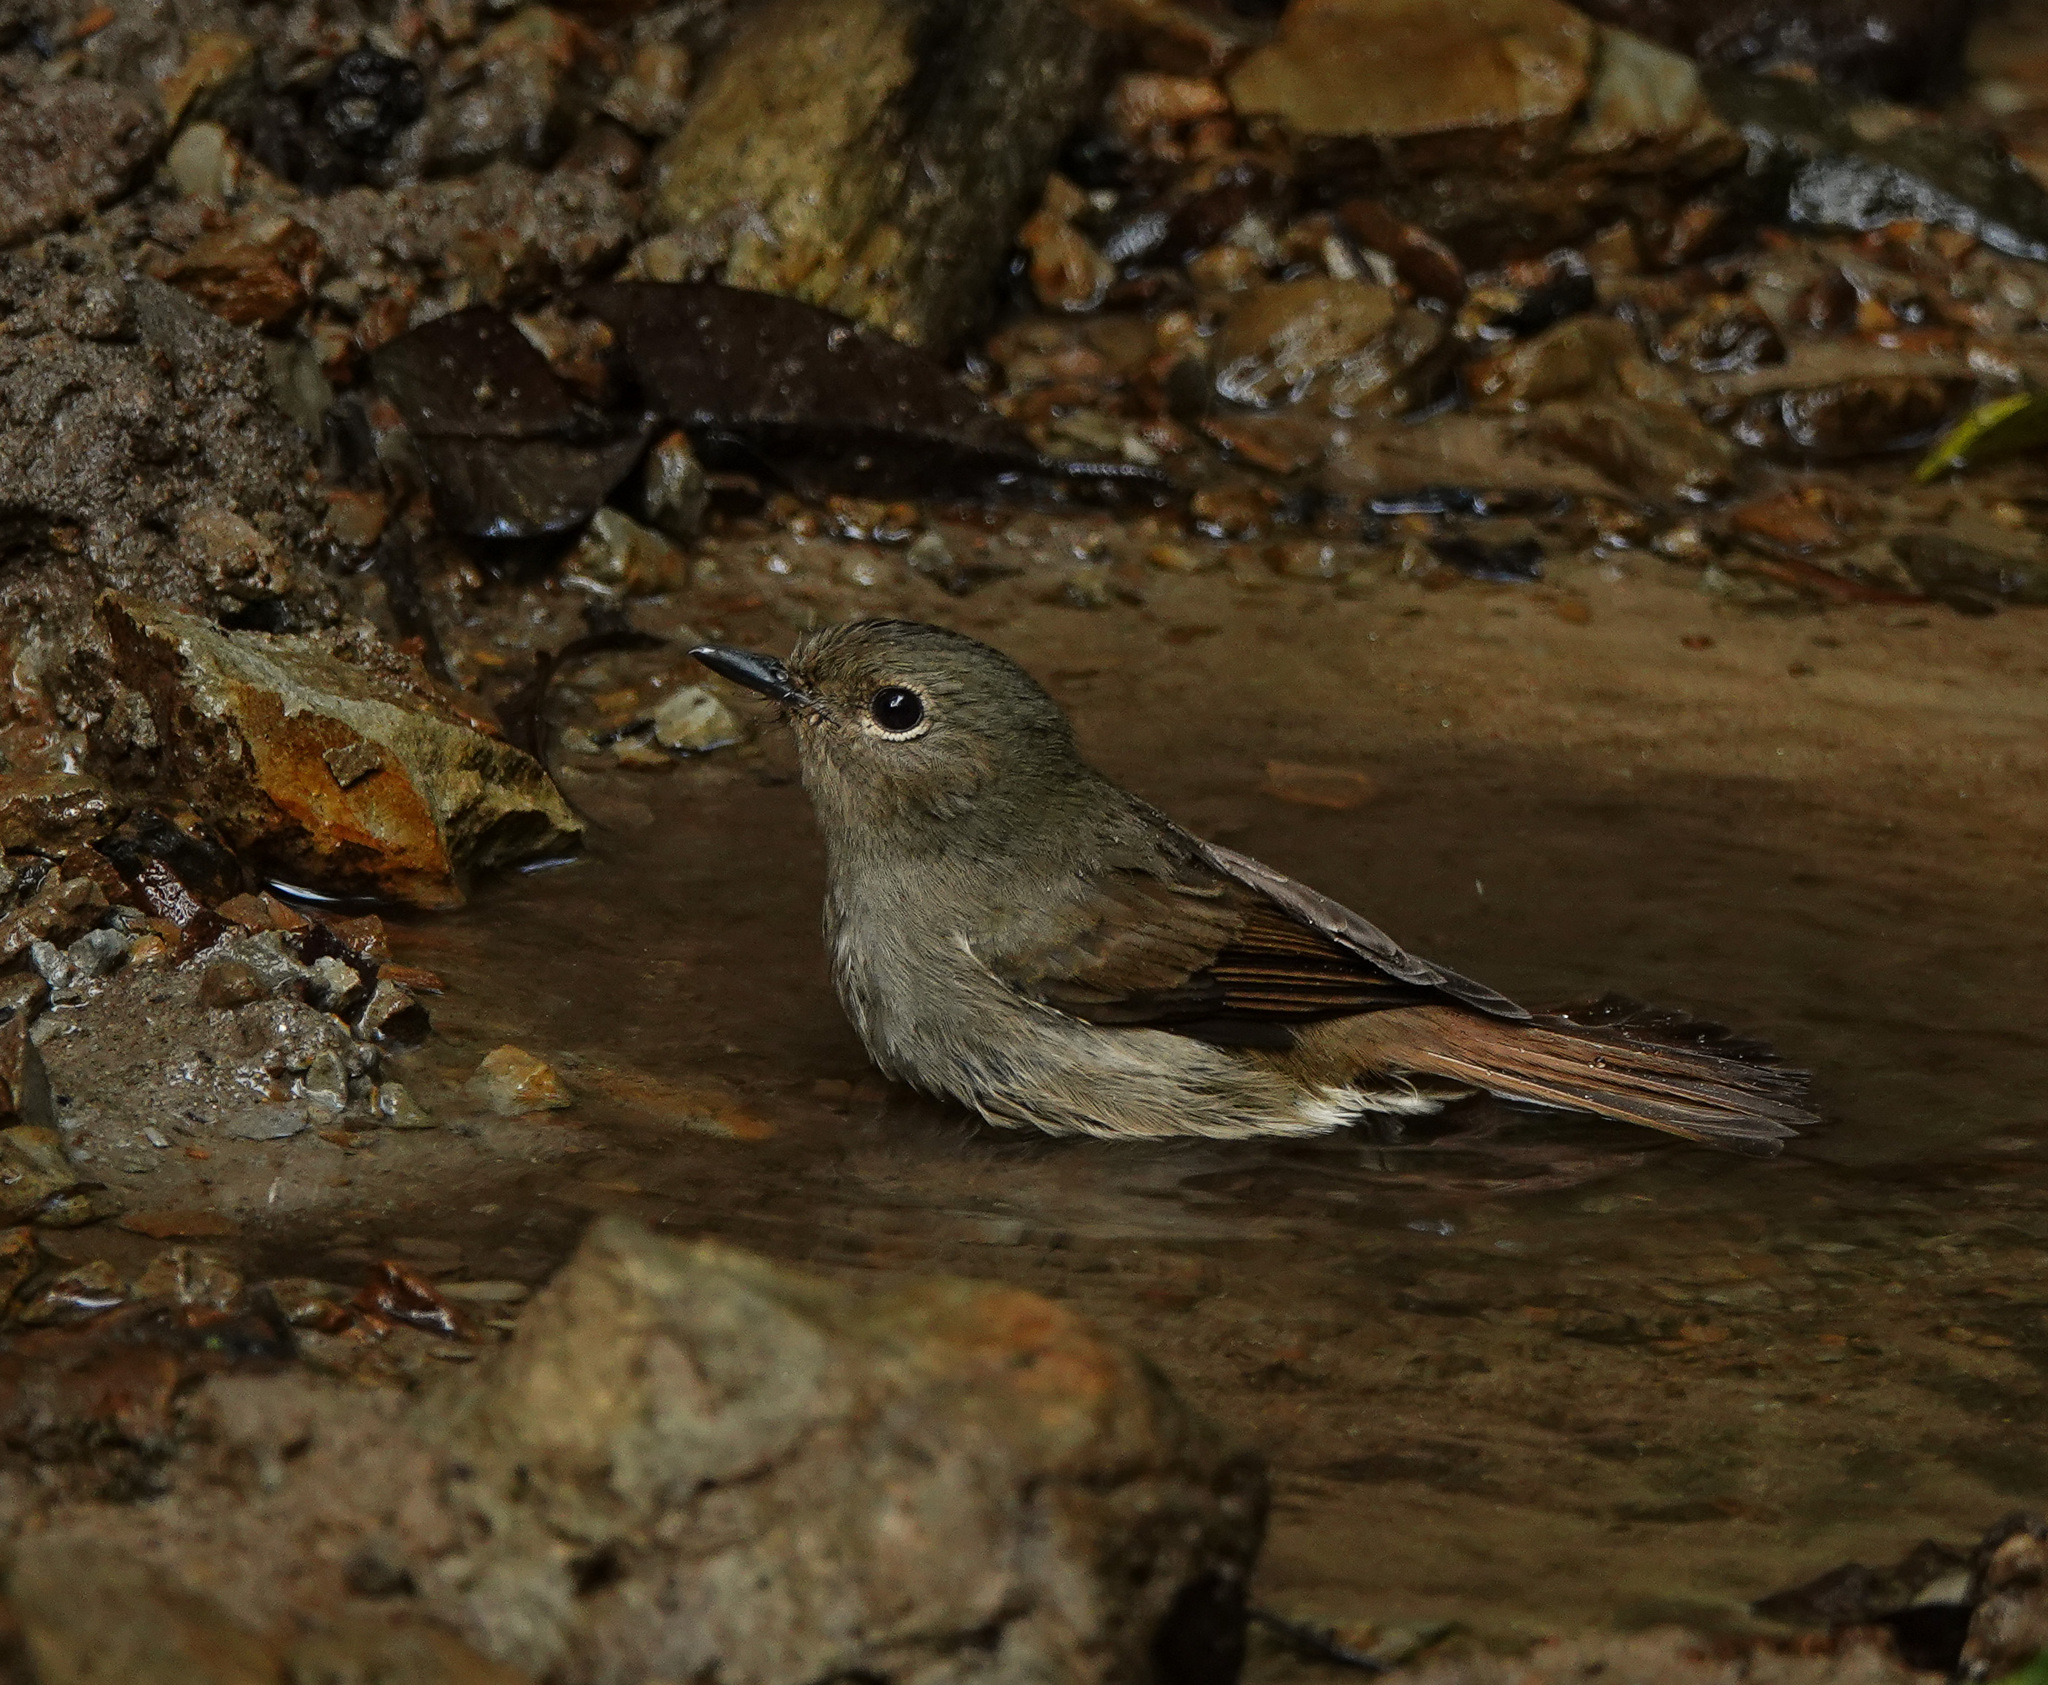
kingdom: Animalia
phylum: Chordata
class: Aves
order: Passeriformes
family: Muscicapidae
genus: Cyornis
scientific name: Cyornis unicolor
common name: Pale blue flycatcher
